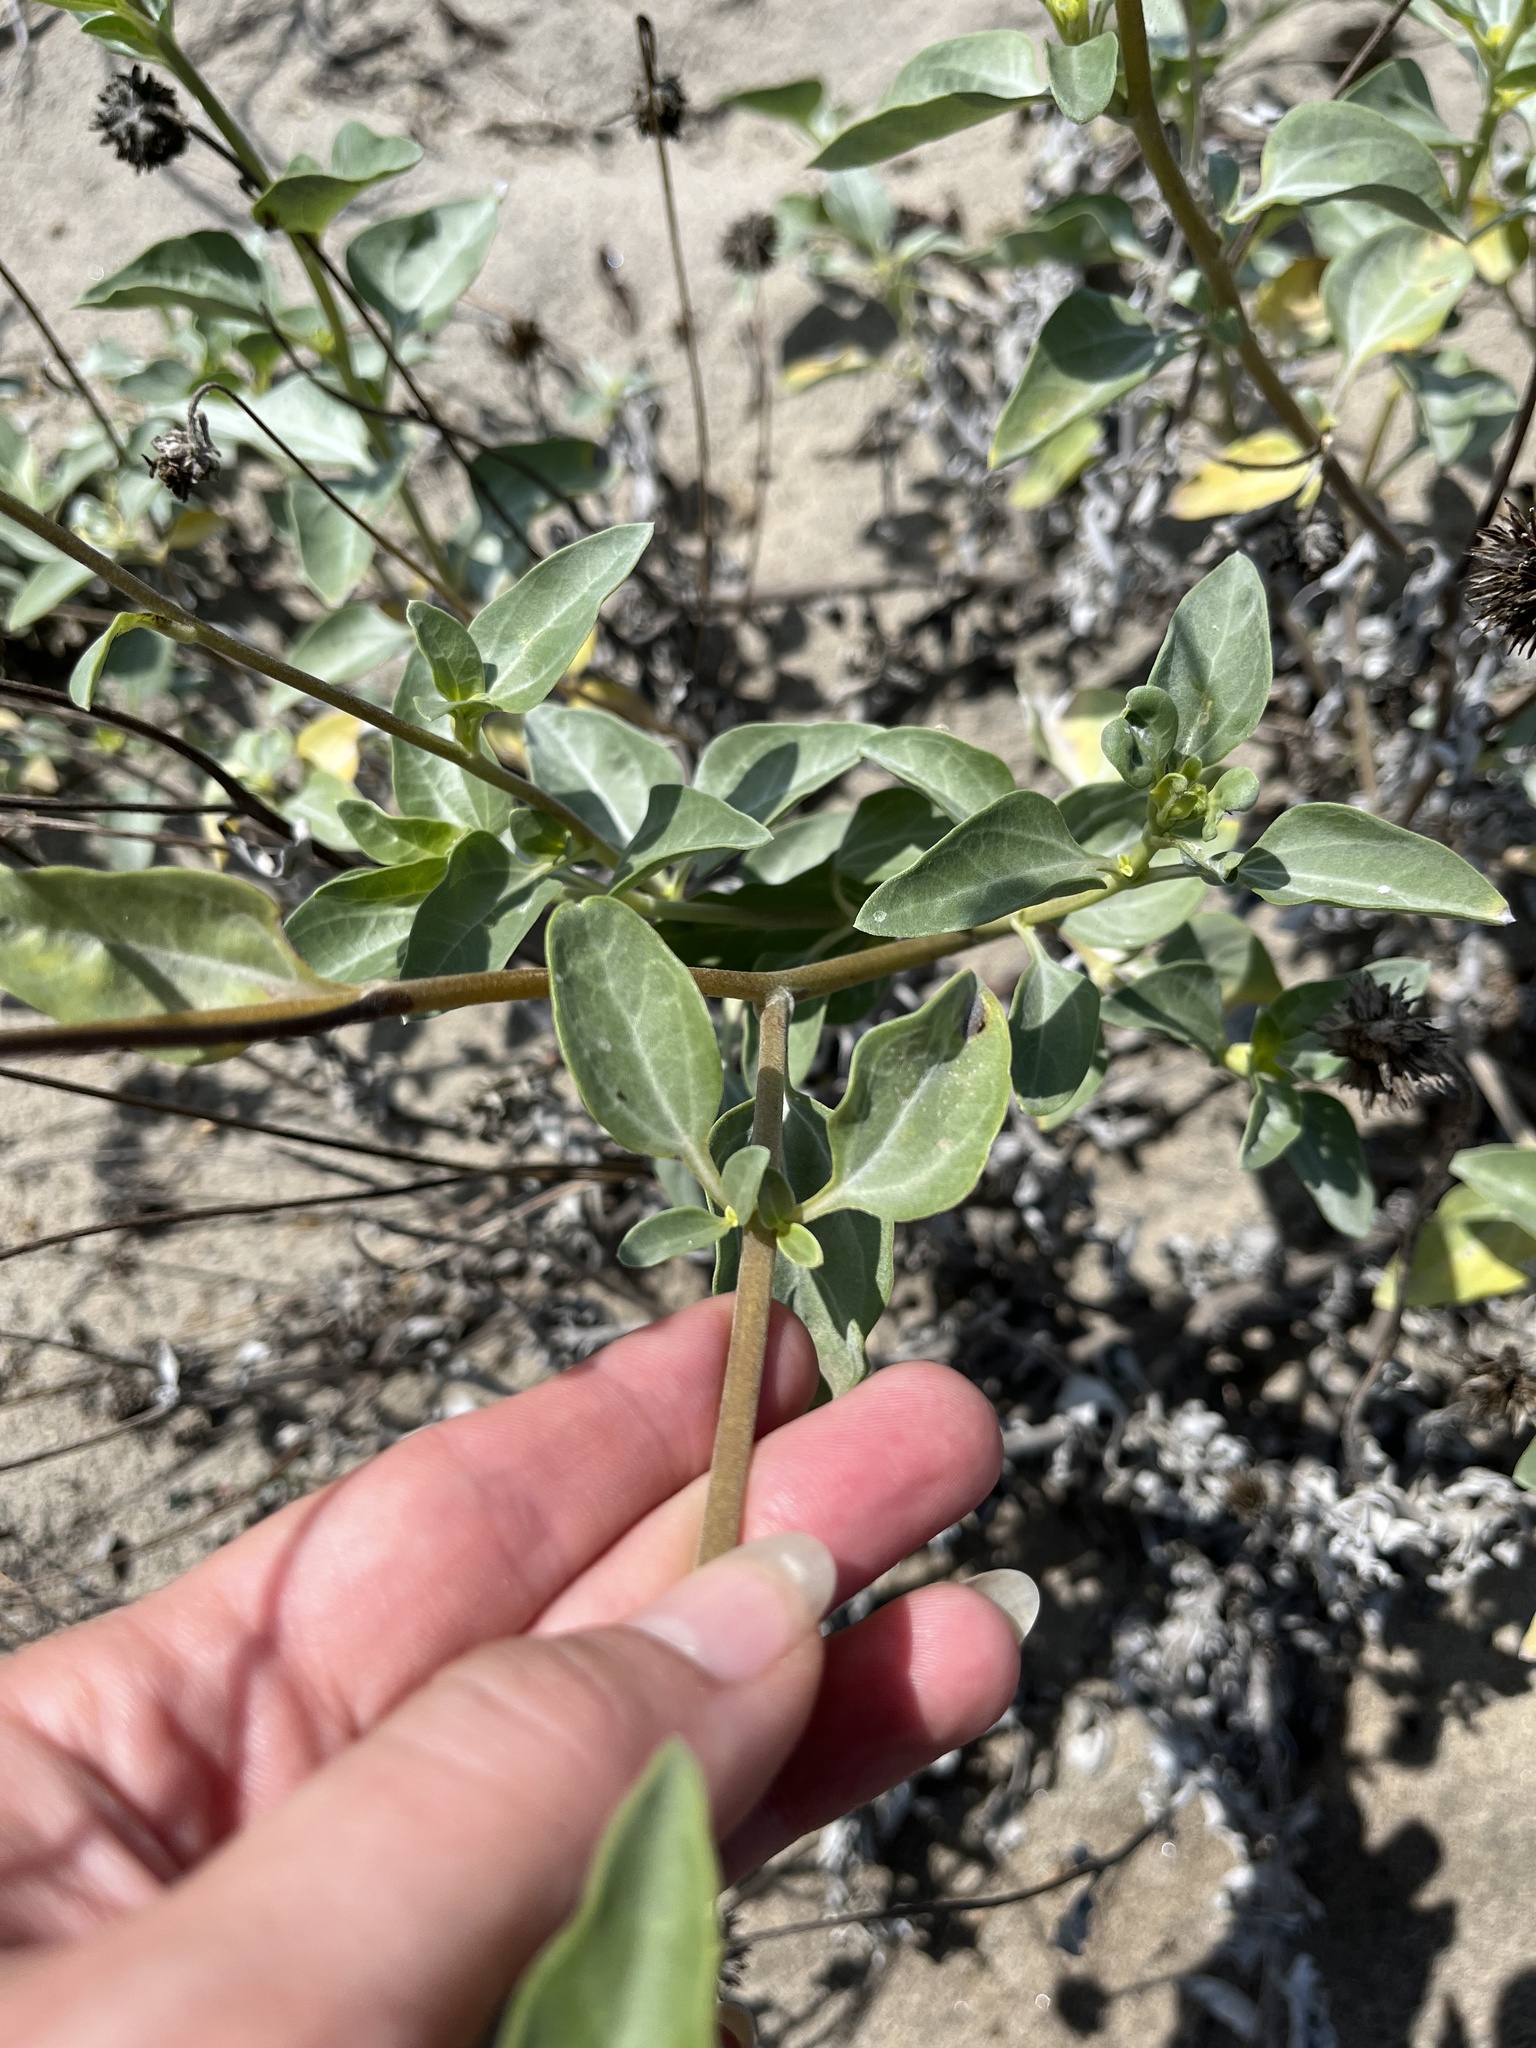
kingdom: Plantae
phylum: Tracheophyta
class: Magnoliopsida
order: Asterales
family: Asteraceae
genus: Helianthus
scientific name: Helianthus niveus
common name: Snowy sunflower
